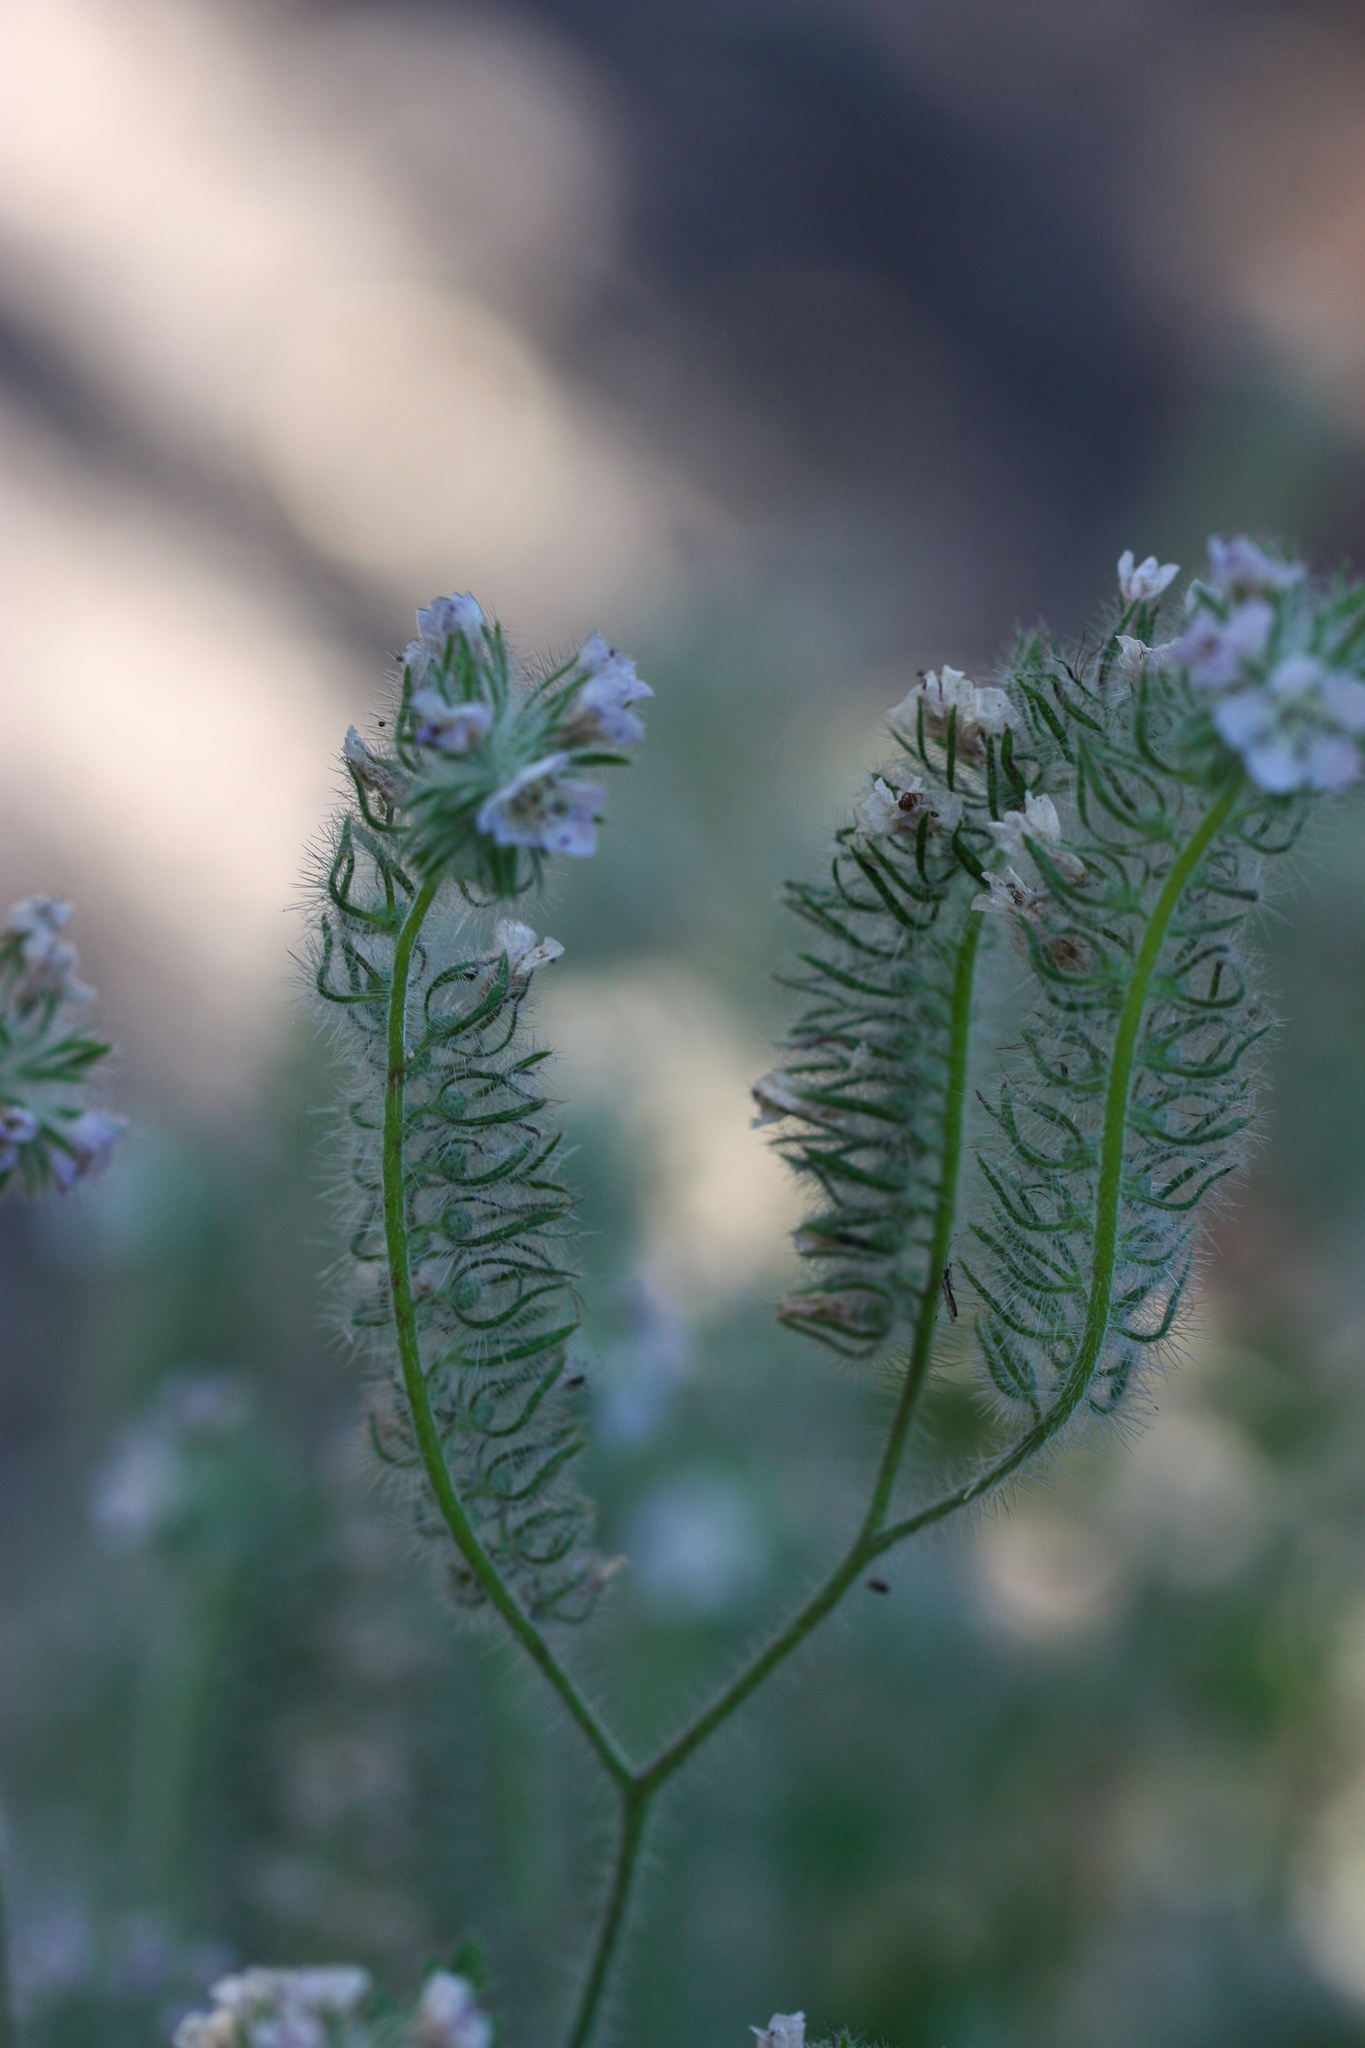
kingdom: Plantae
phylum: Tracheophyta
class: Magnoliopsida
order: Boraginales
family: Hydrophyllaceae
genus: Phacelia
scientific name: Phacelia cicutaria
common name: Caterpillar phacelia
